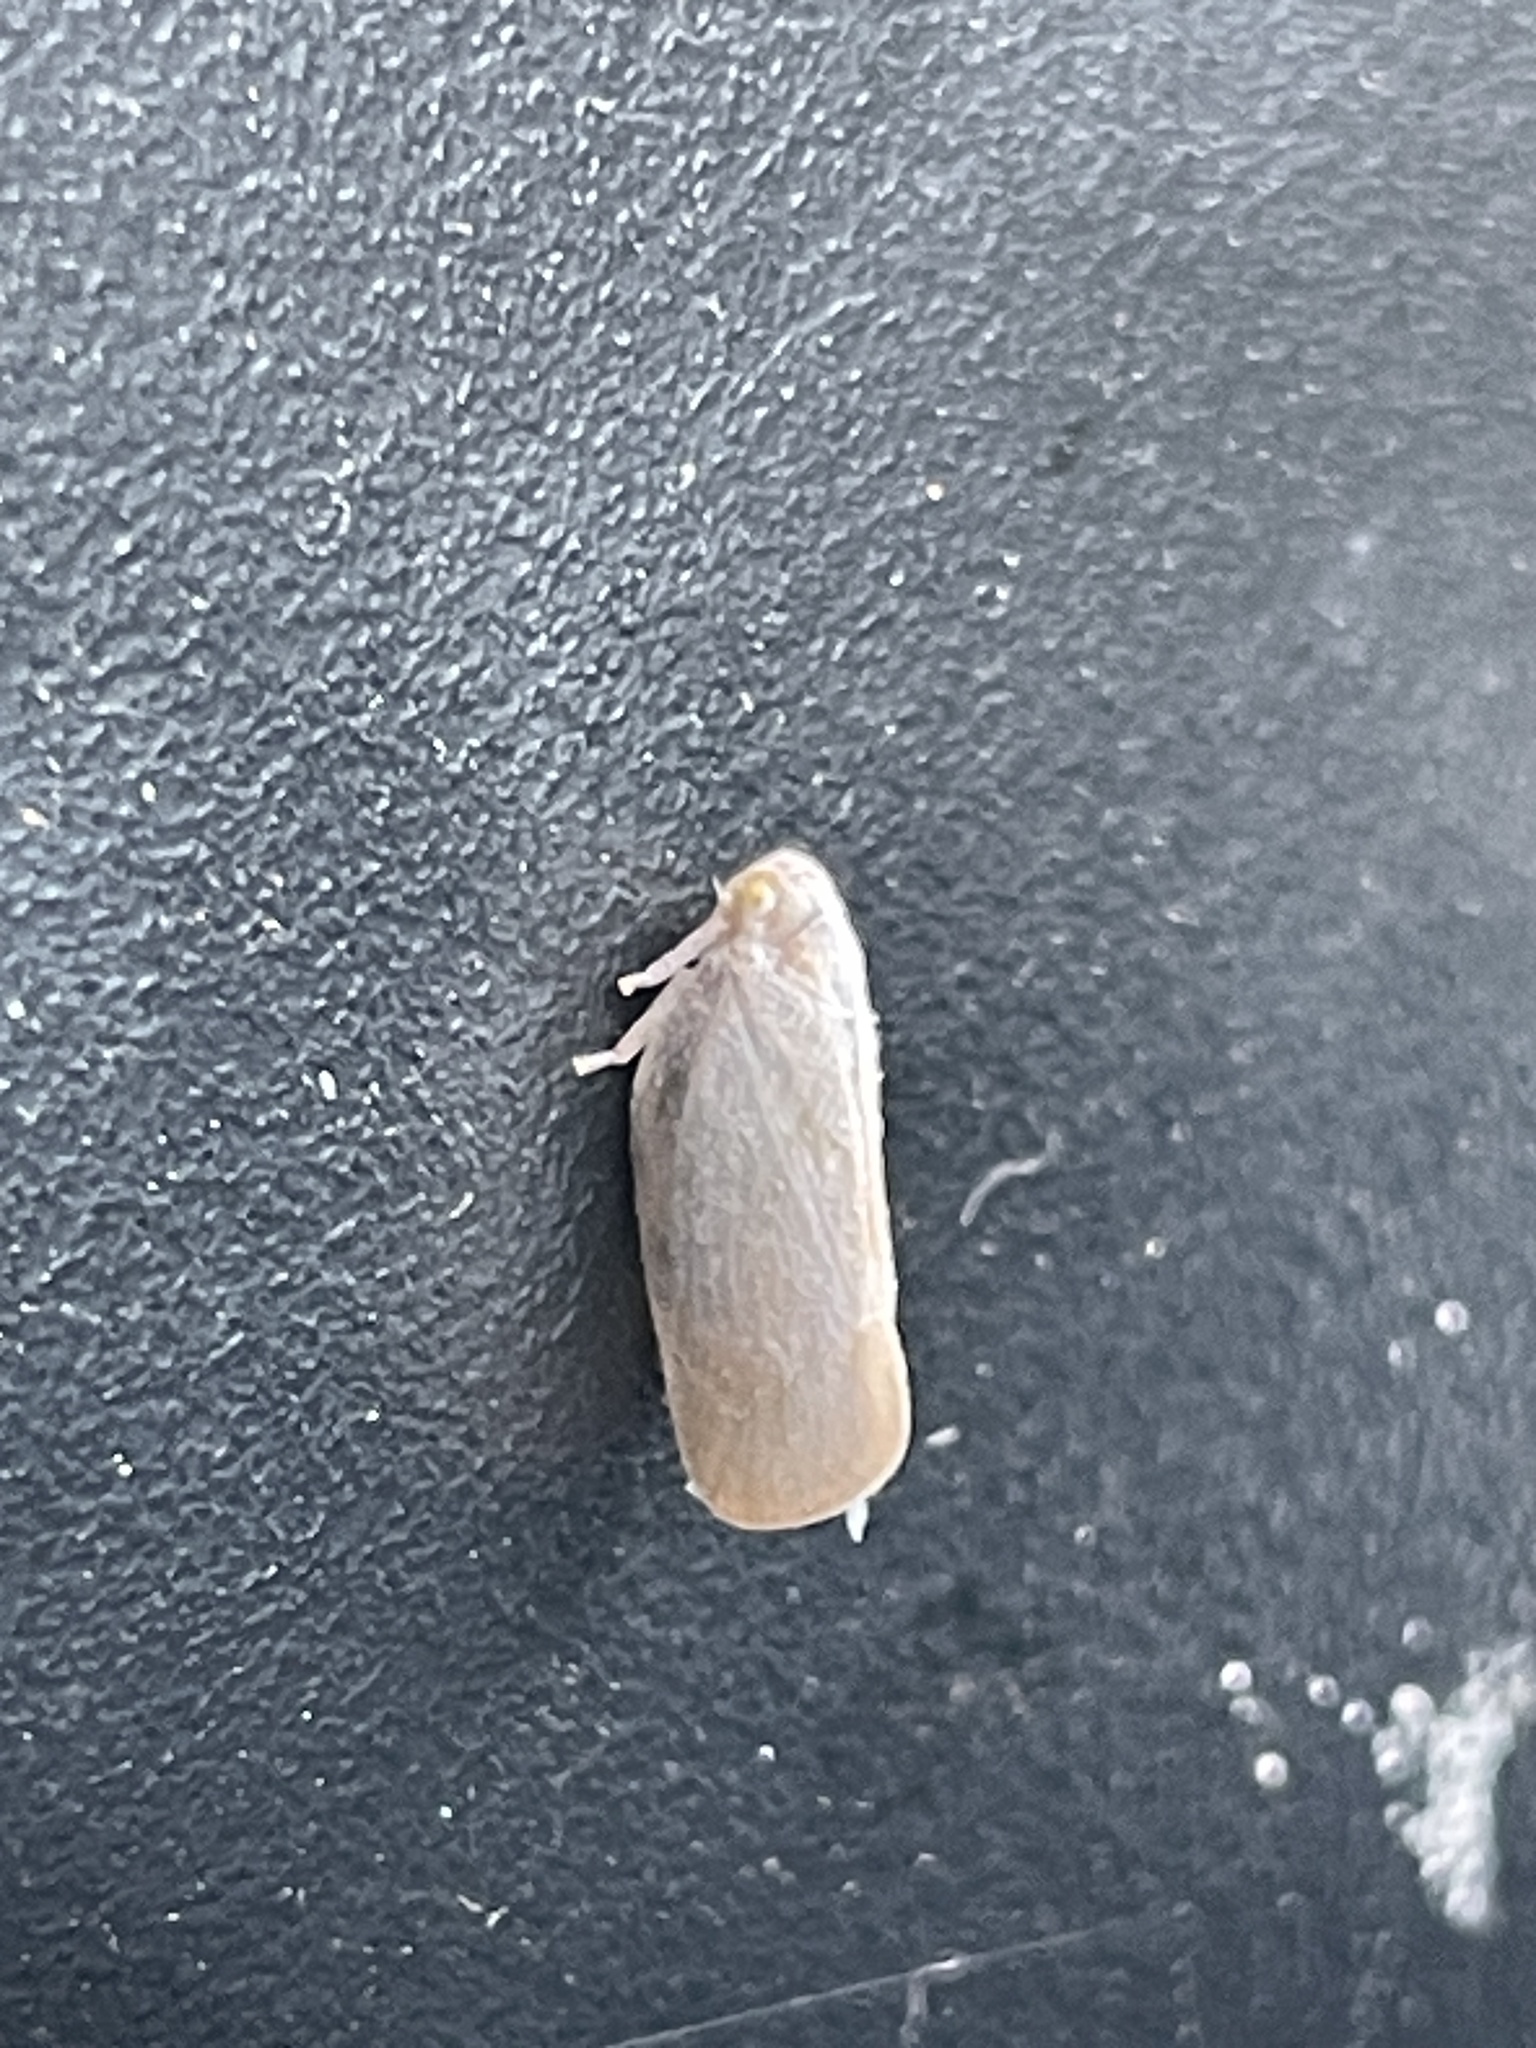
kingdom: Animalia
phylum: Arthropoda
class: Insecta
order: Hemiptera
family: Flatidae
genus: Anzora
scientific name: Anzora unicolor
